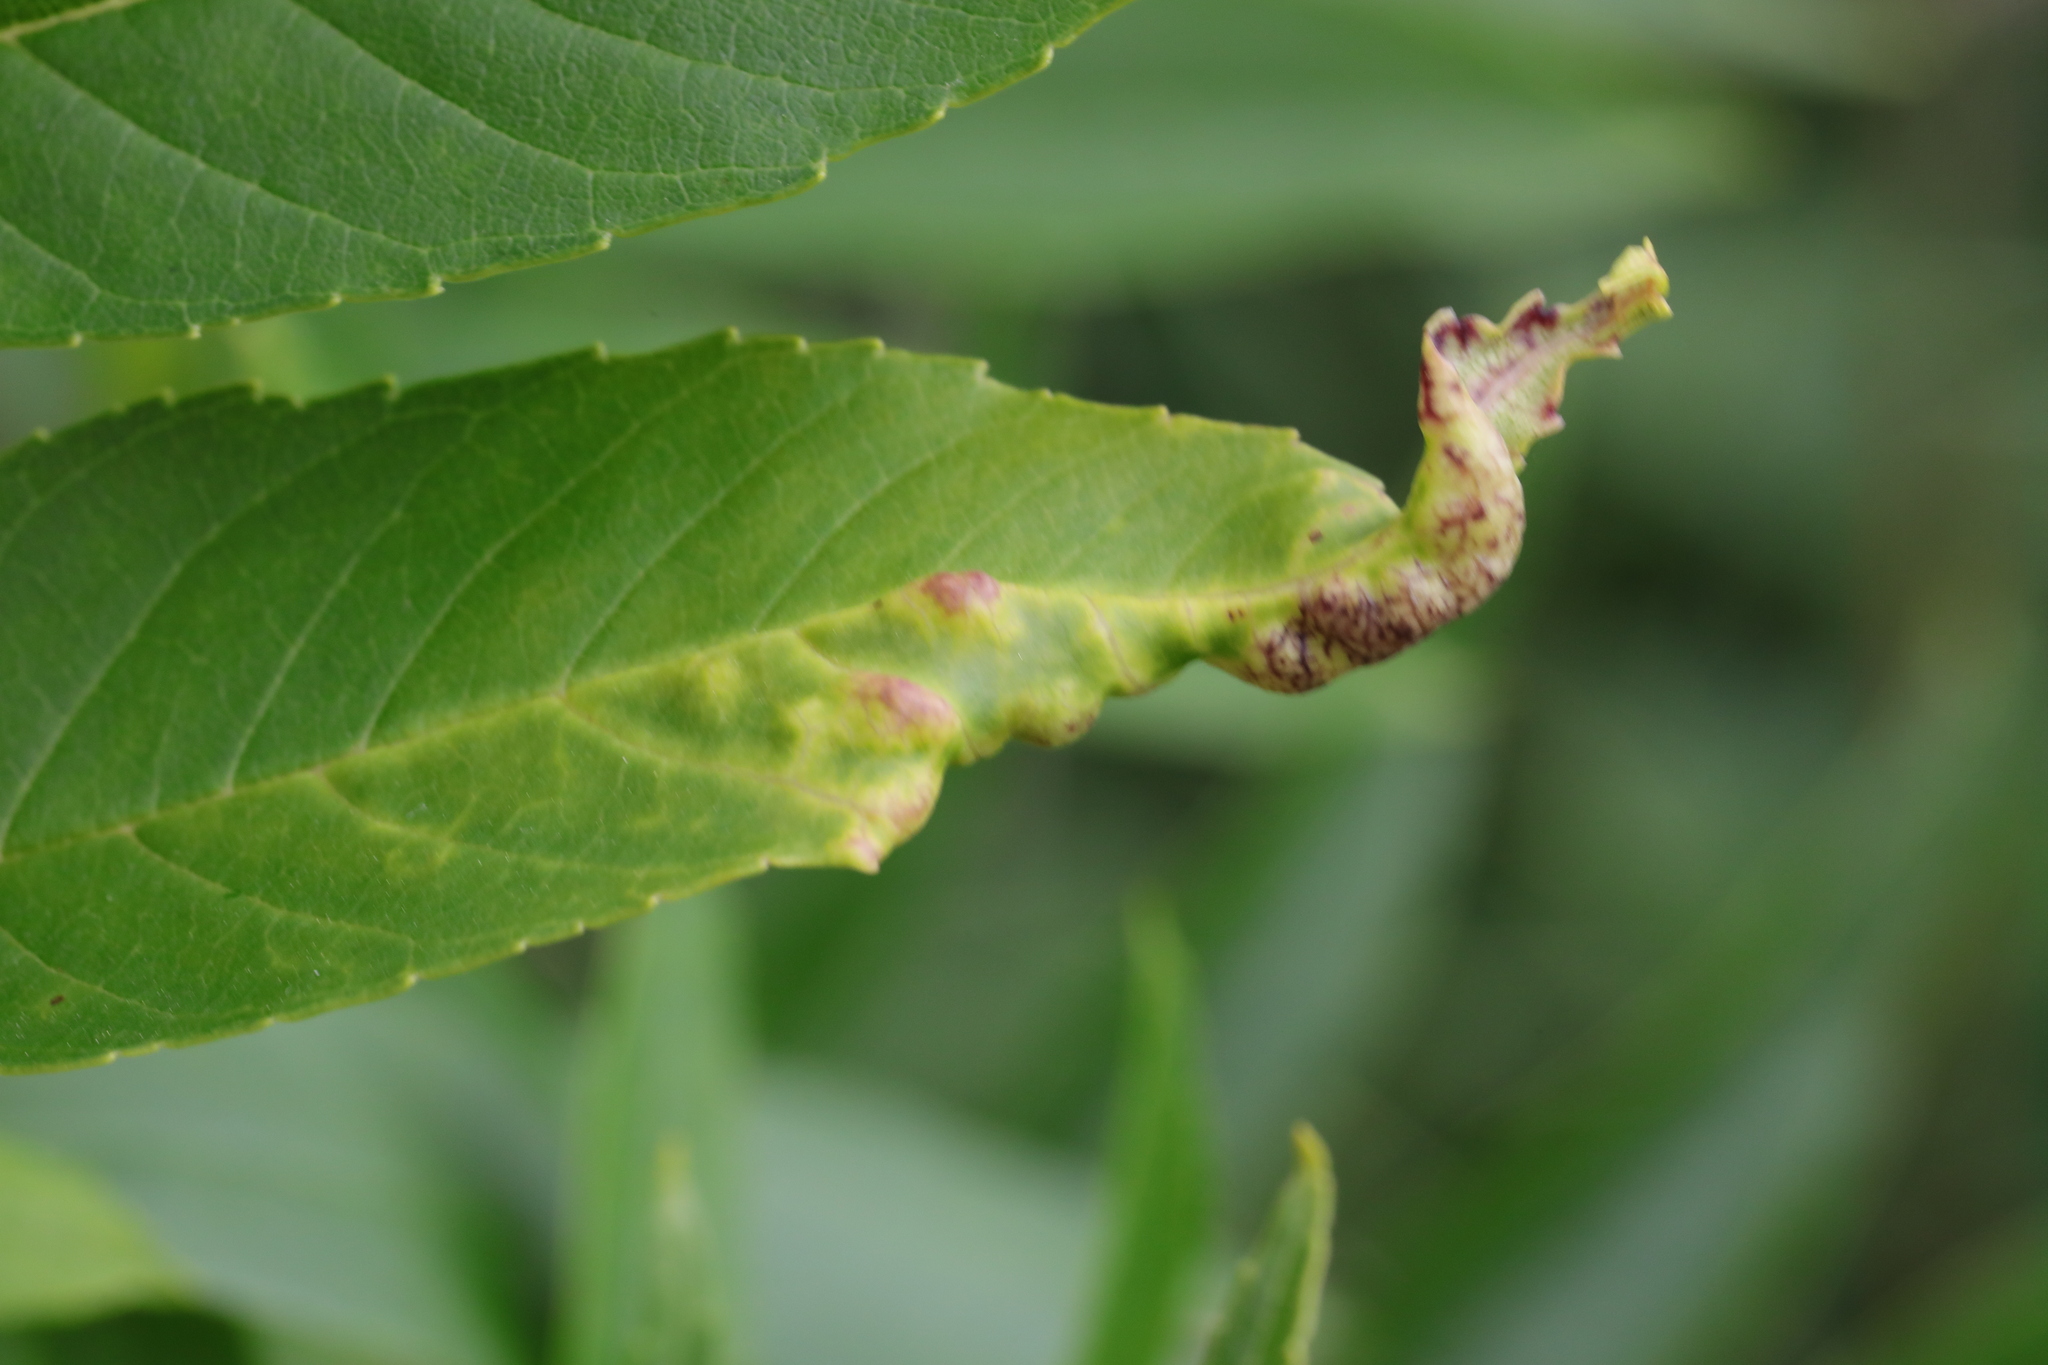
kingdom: Animalia
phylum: Arthropoda
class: Insecta
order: Hemiptera
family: Liviidae
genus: Psyllopsis
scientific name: Psyllopsis fraxini
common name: Jumping plant louse
